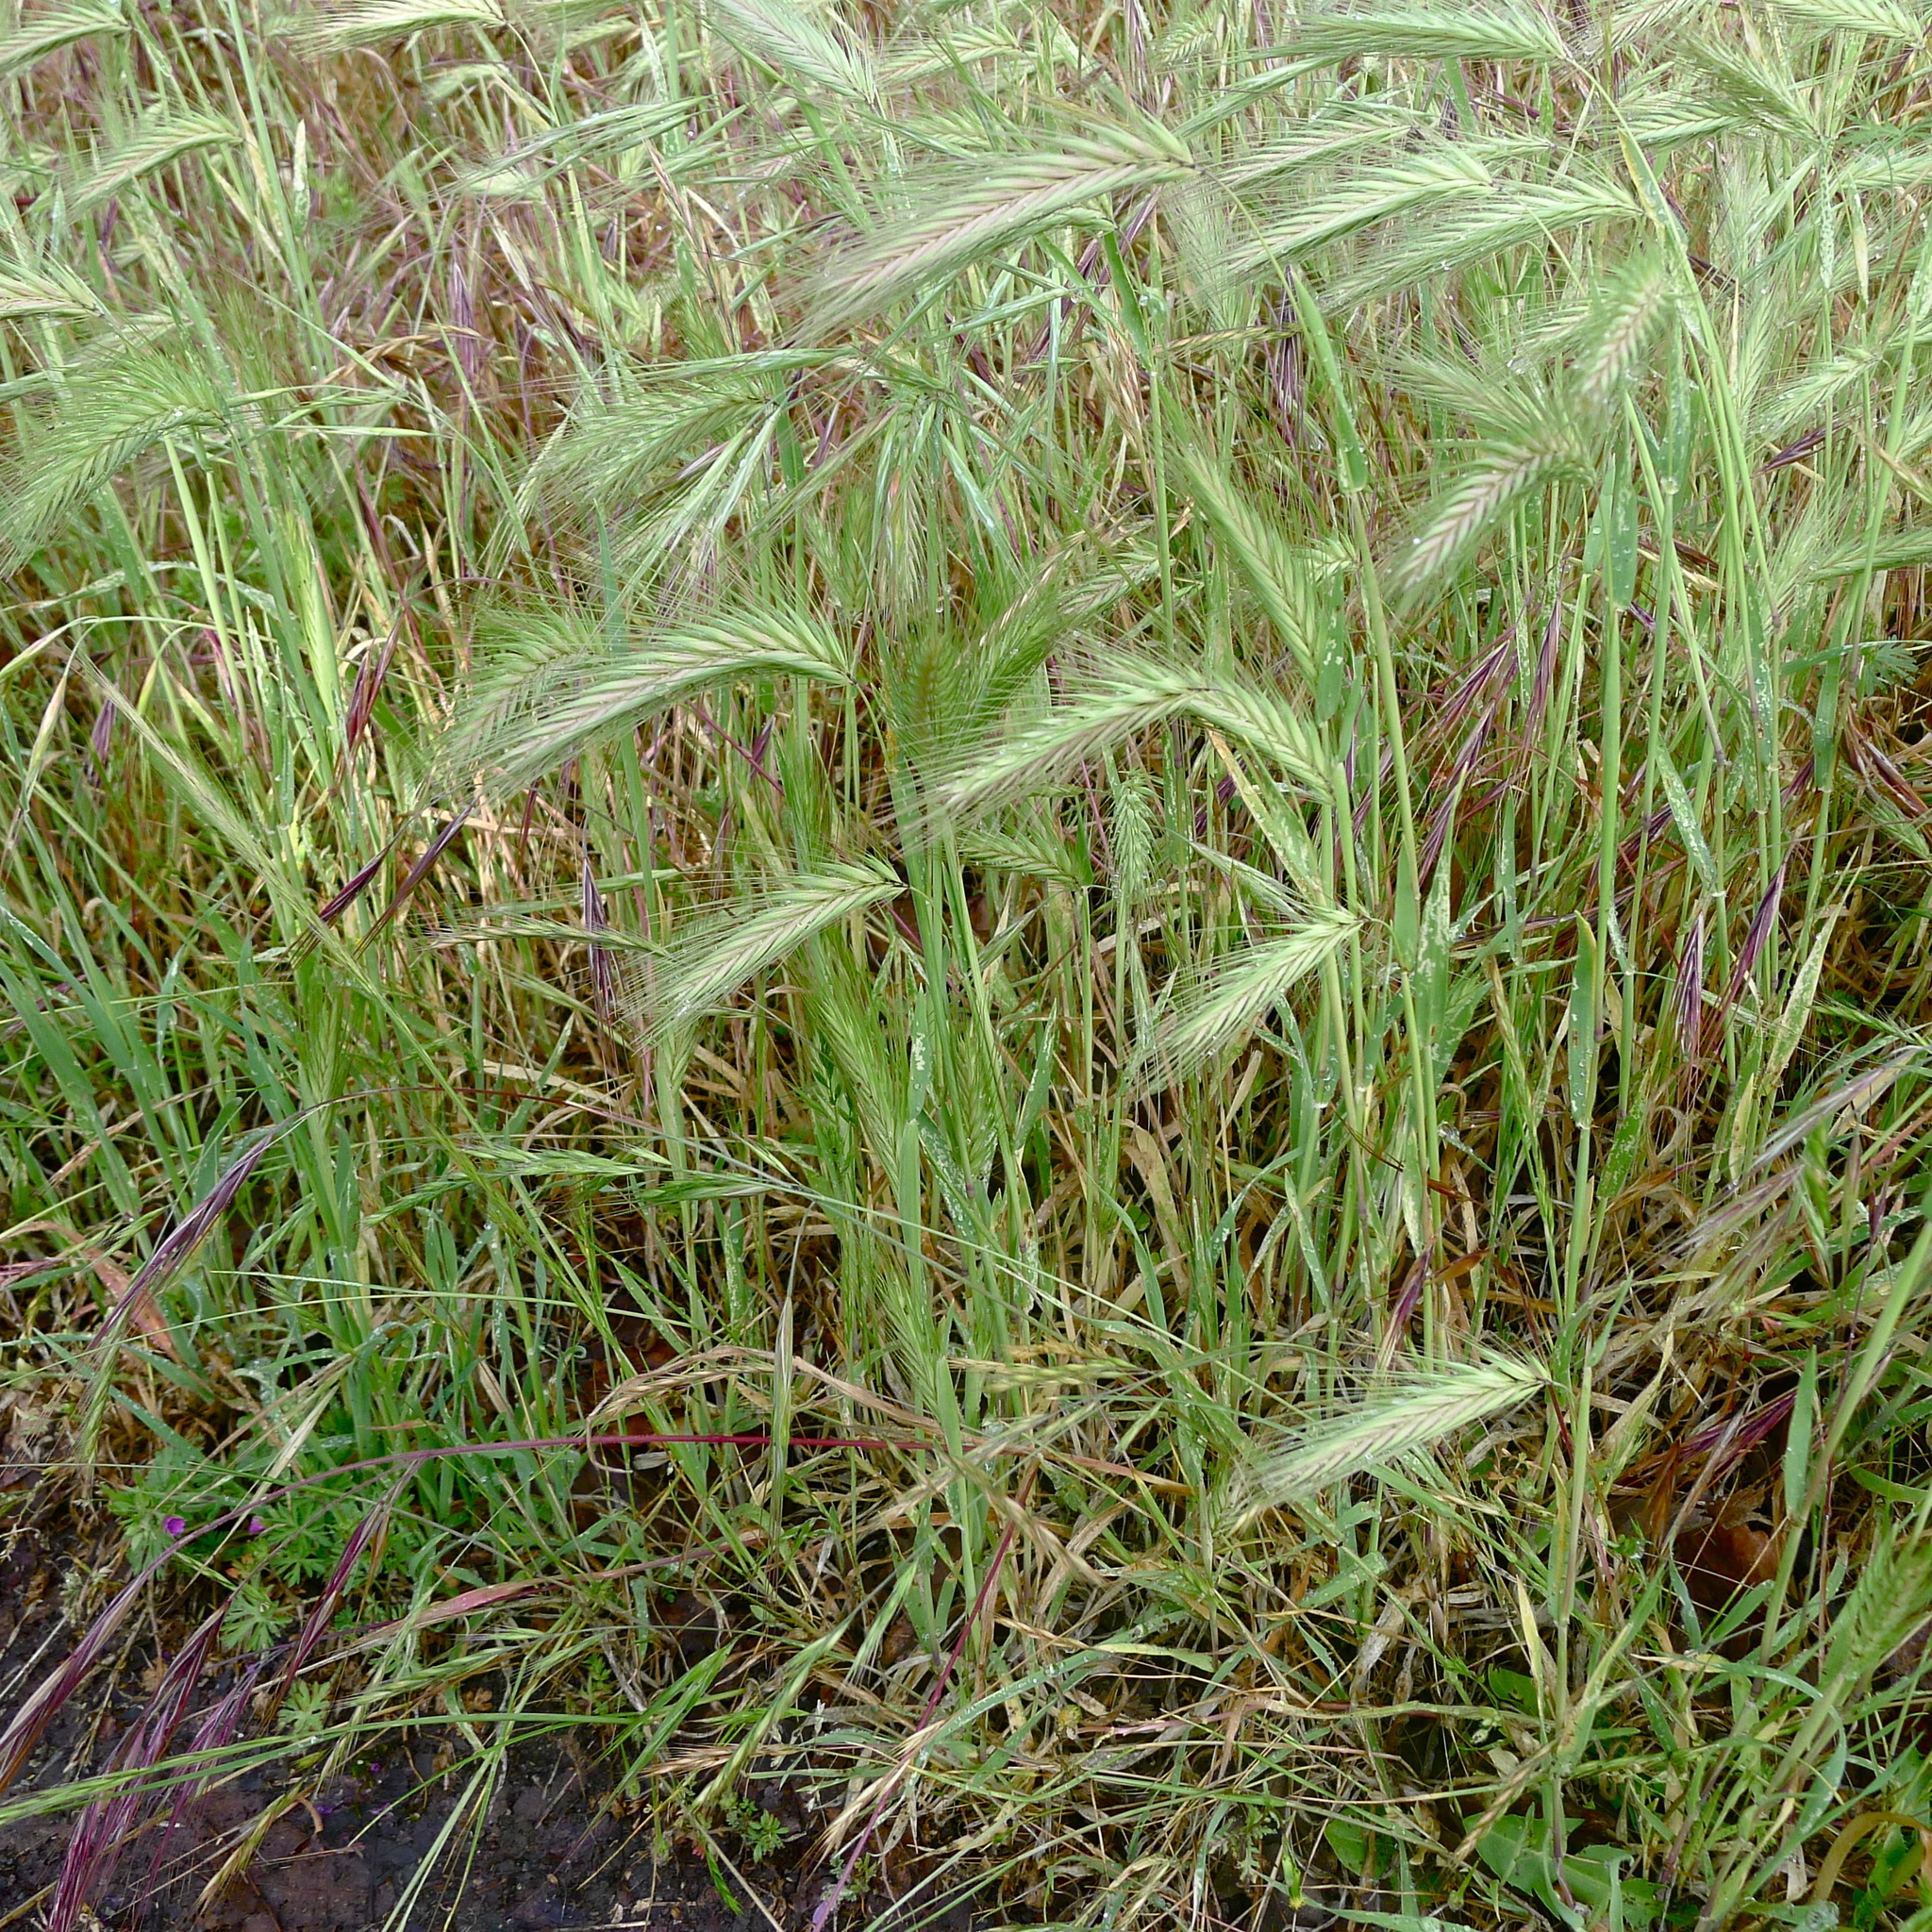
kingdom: Plantae
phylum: Tracheophyta
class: Liliopsida
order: Poales
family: Poaceae
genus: Hordeum
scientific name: Hordeum murinum
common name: Wall barley
